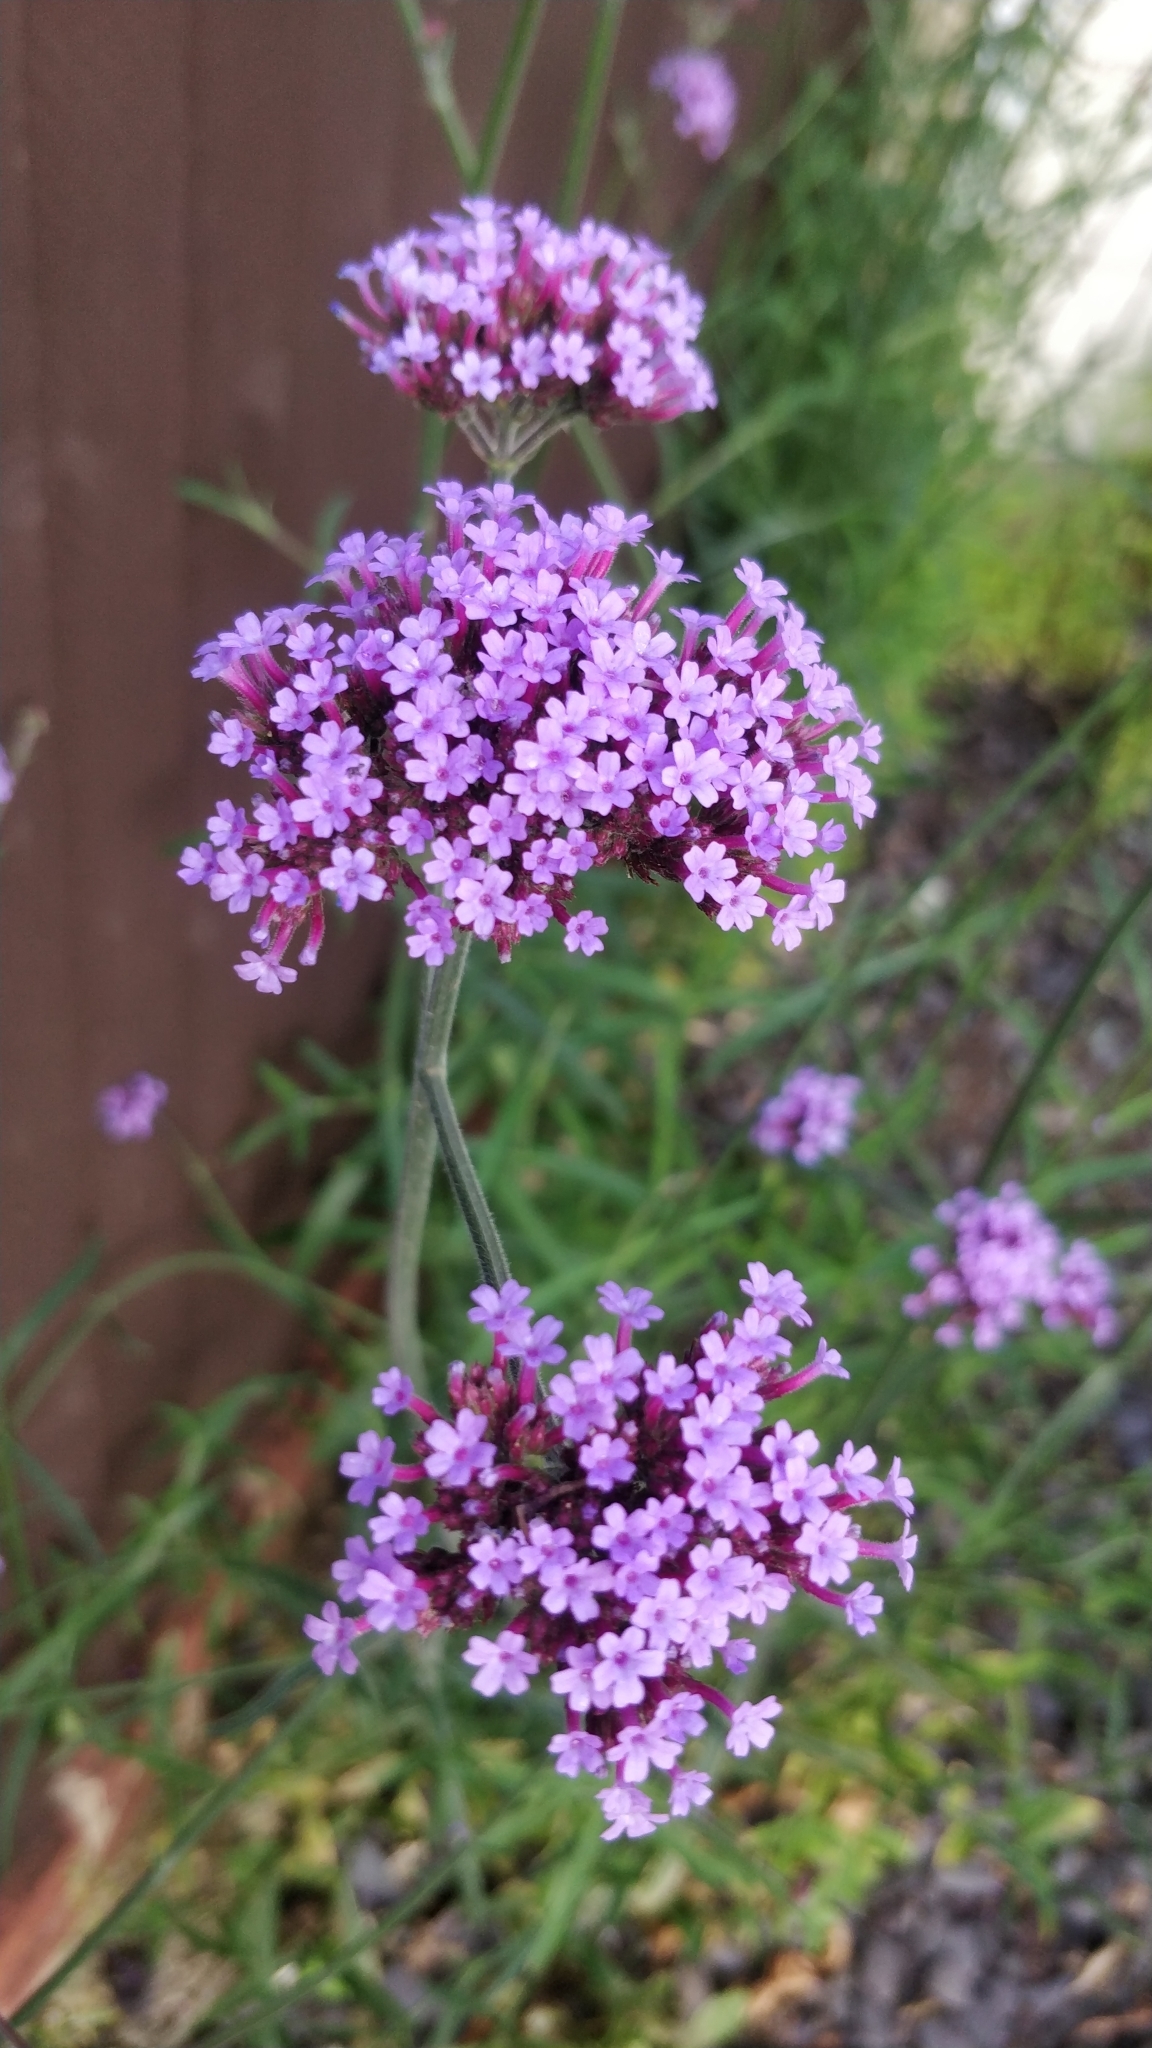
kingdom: Plantae
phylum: Tracheophyta
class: Magnoliopsida
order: Lamiales
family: Verbenaceae
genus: Verbena
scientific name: Verbena bonariensis
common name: Purpletop vervain
